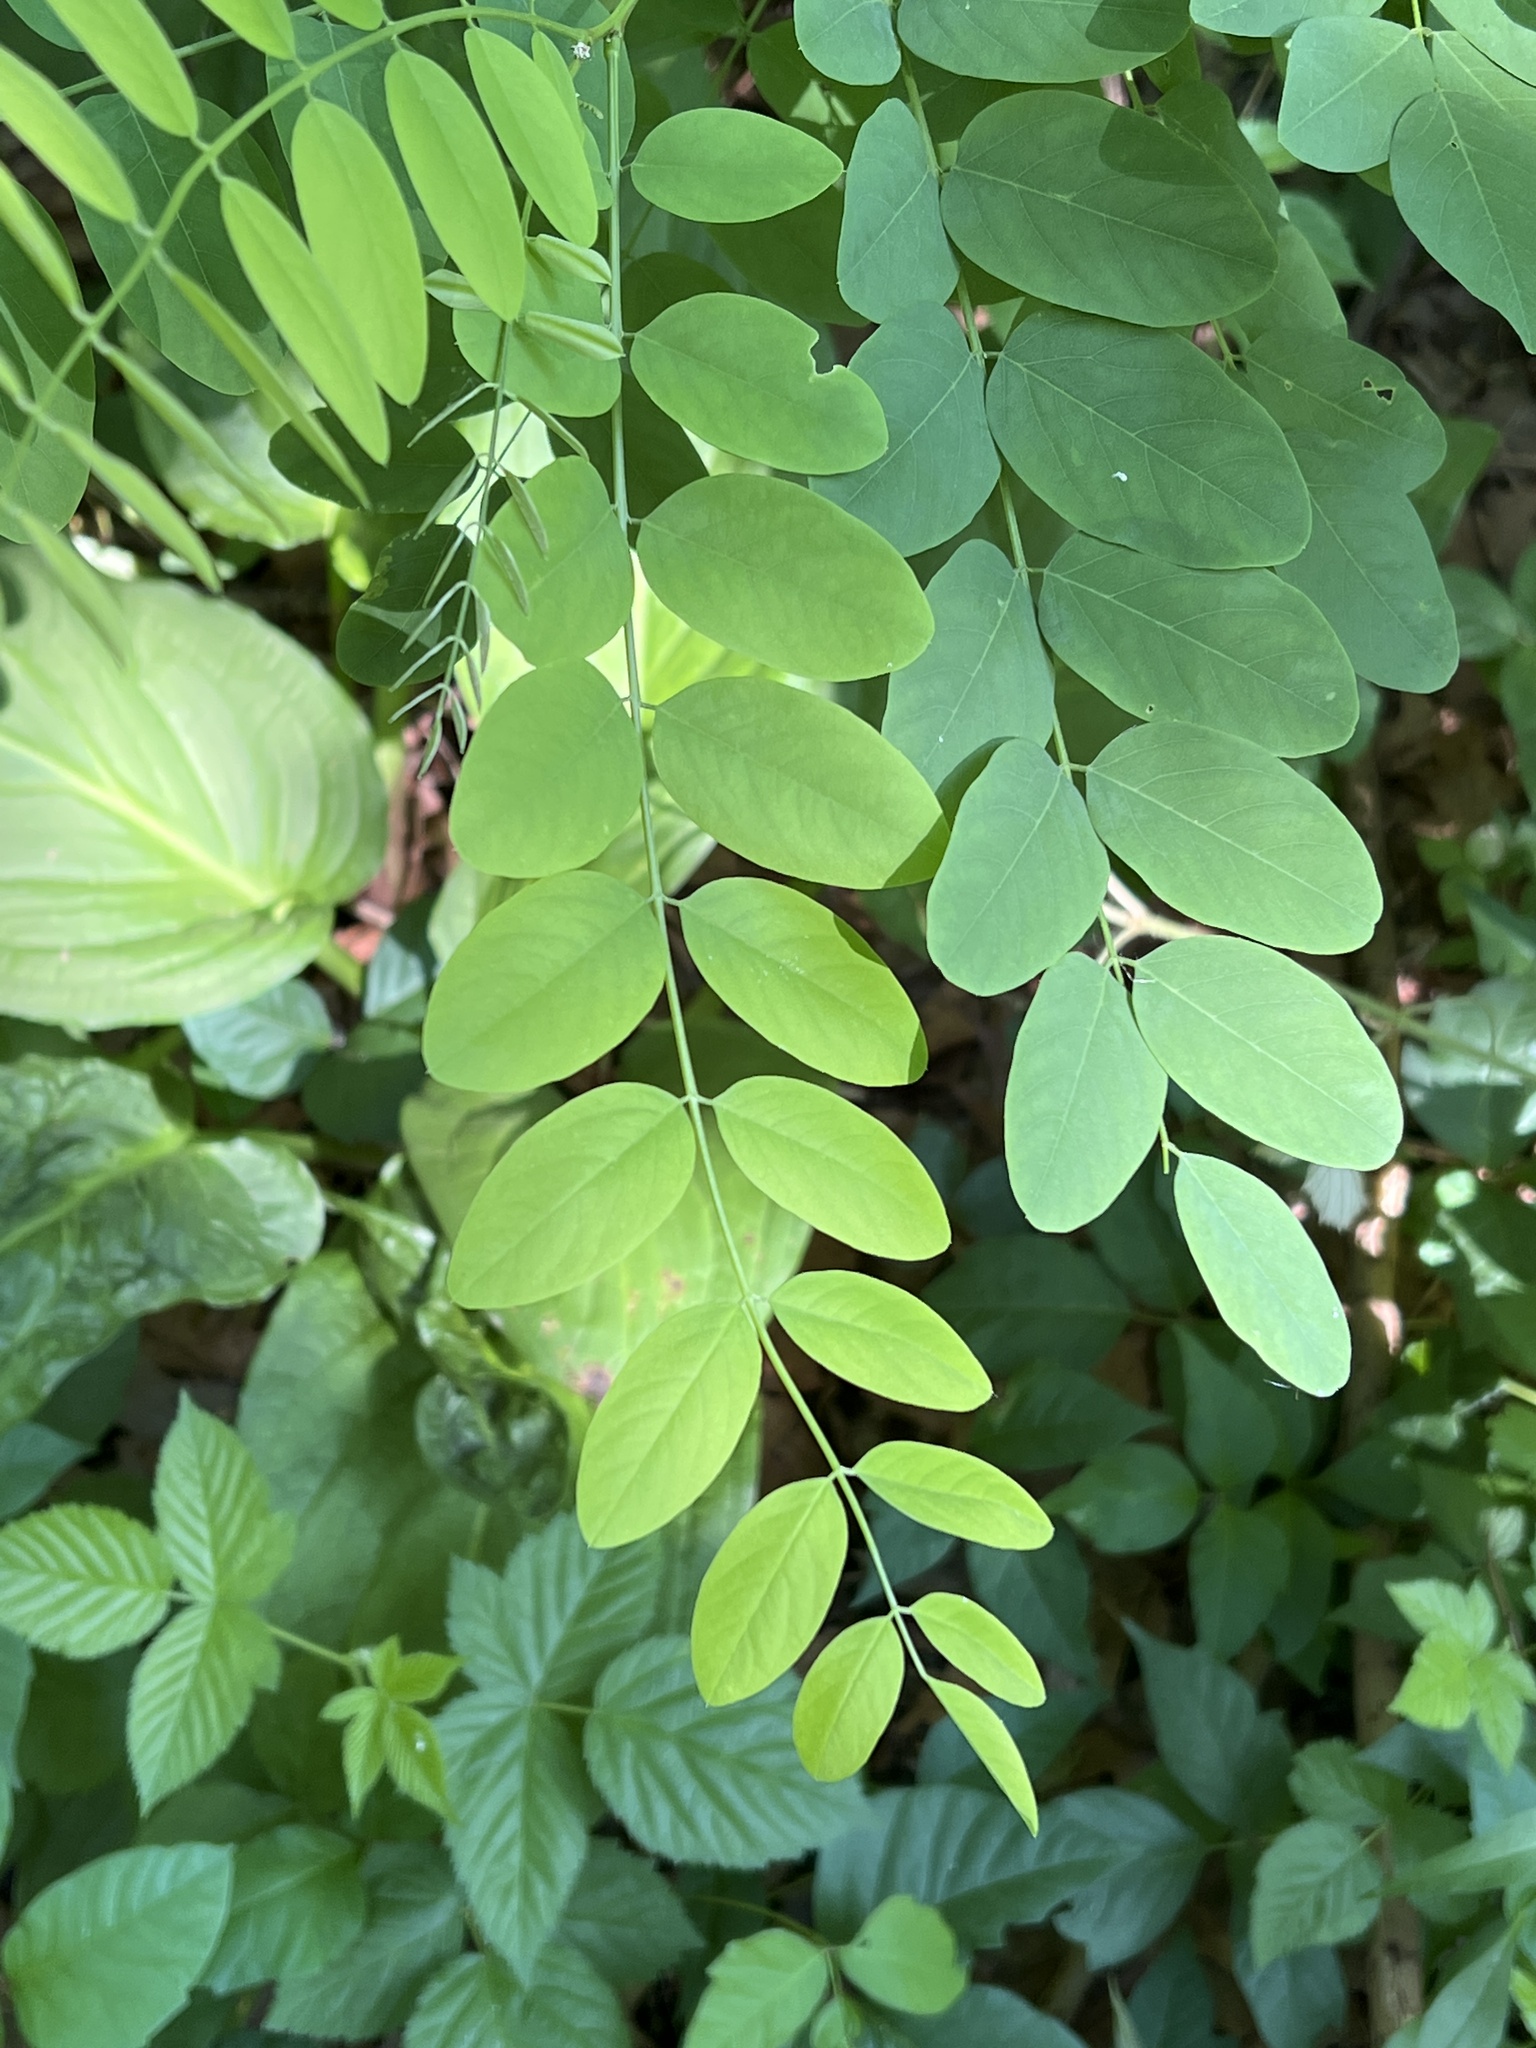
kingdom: Plantae
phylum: Tracheophyta
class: Magnoliopsida
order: Fabales
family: Fabaceae
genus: Robinia
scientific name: Robinia pseudoacacia
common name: Black locust
